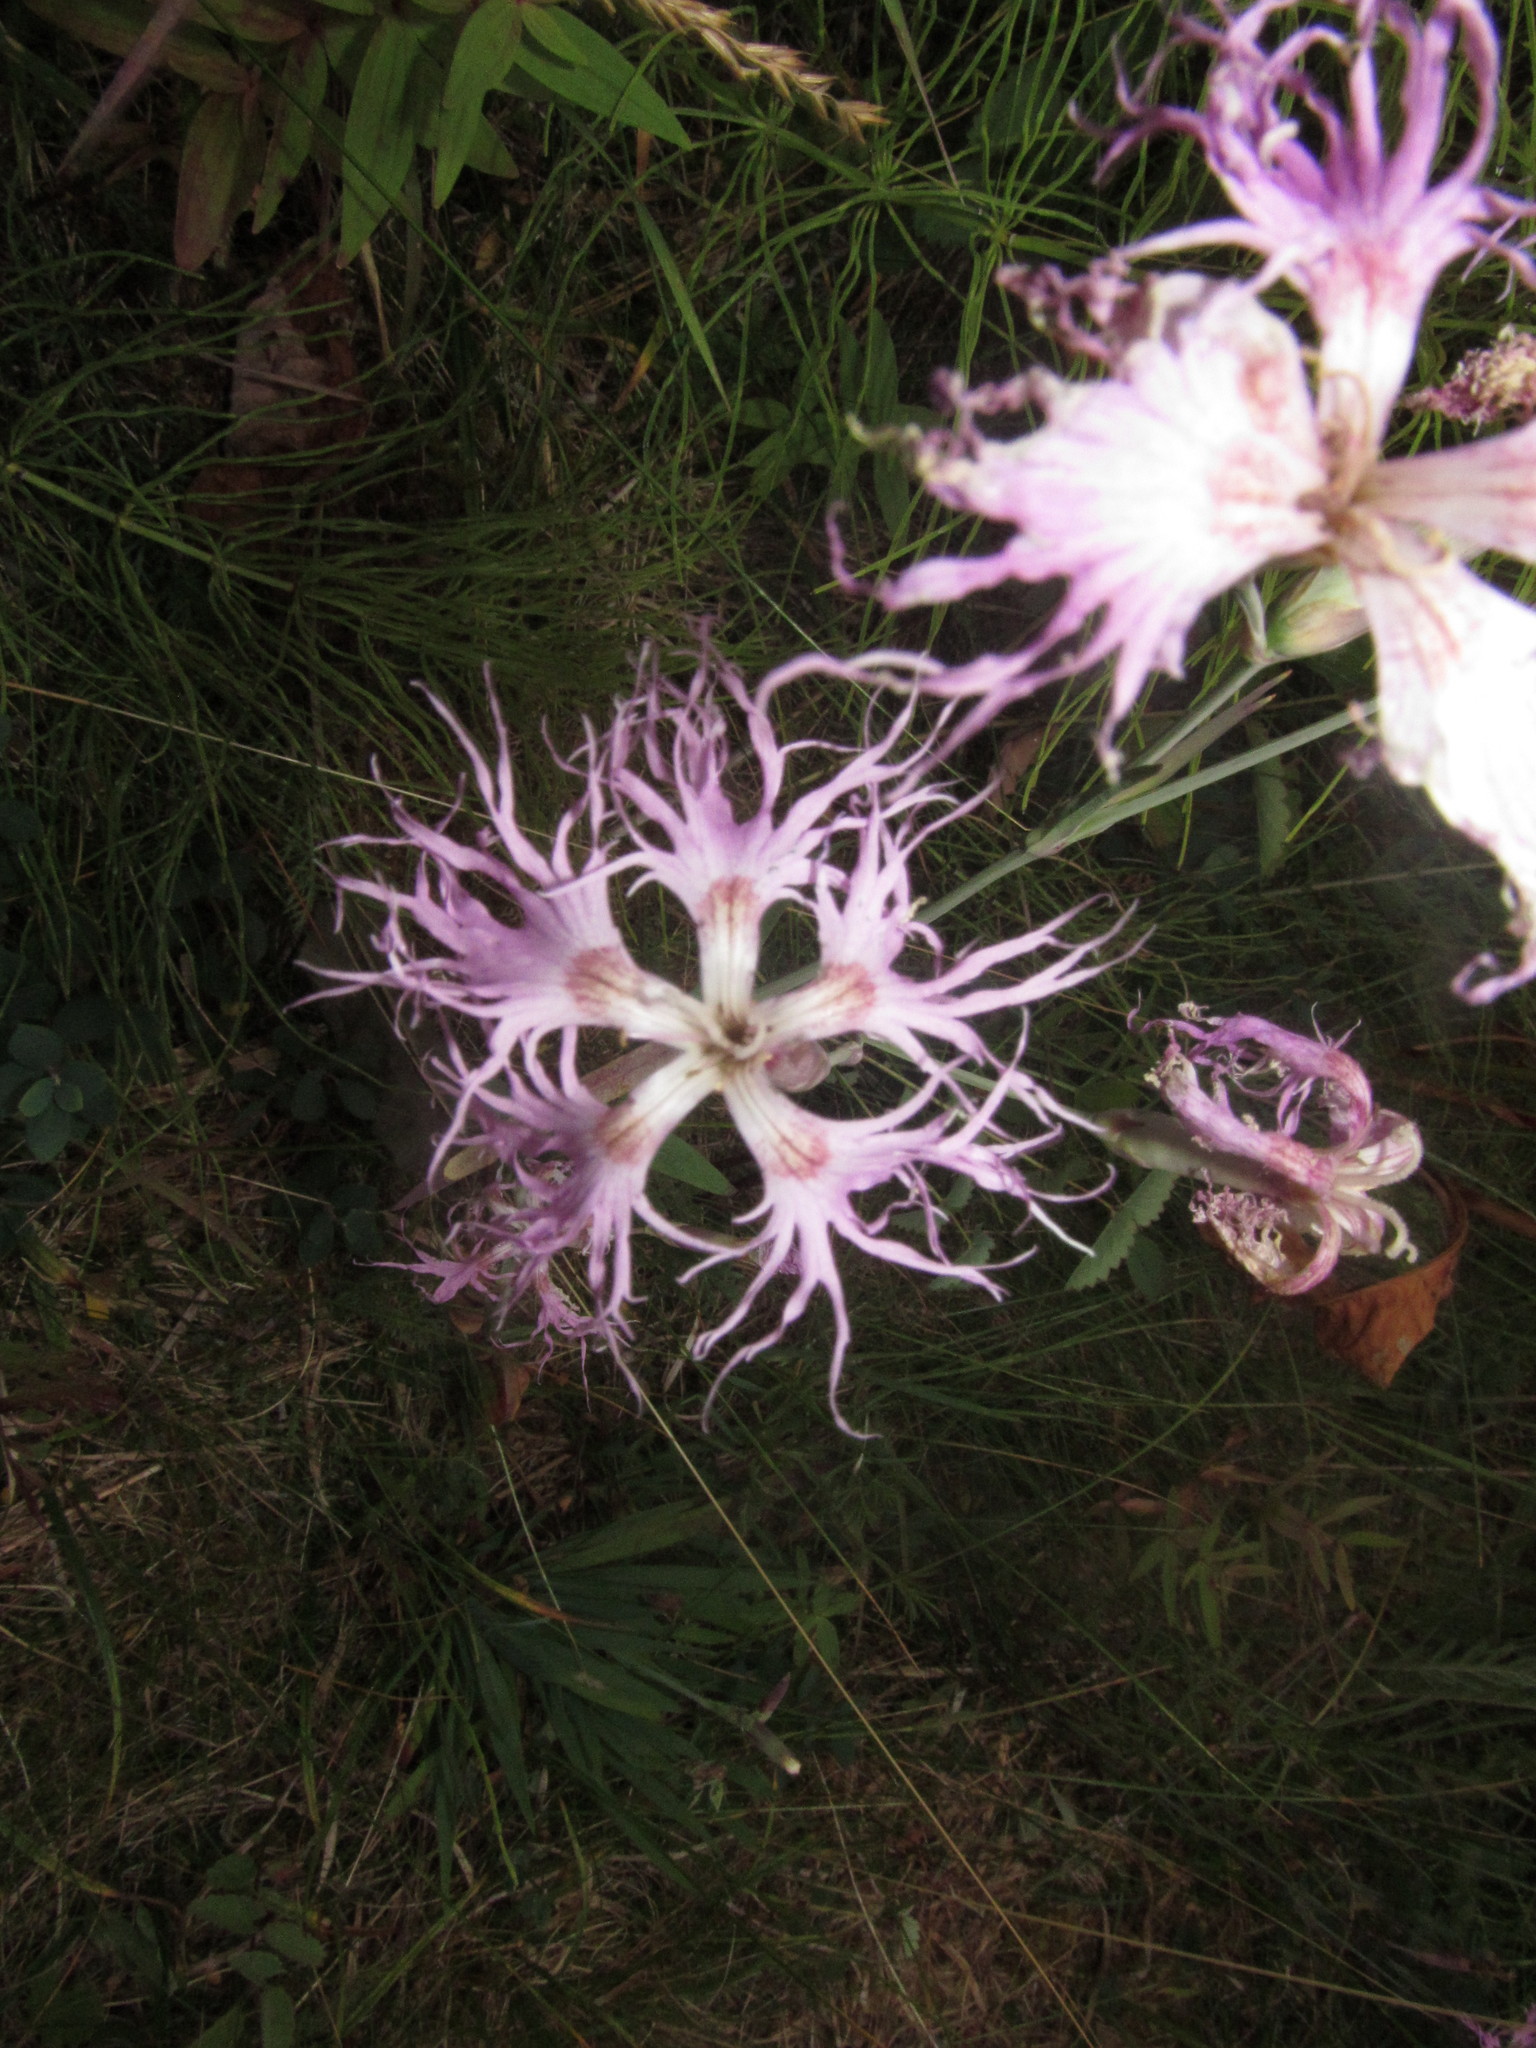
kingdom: Plantae
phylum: Tracheophyta
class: Magnoliopsida
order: Caryophyllales
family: Caryophyllaceae
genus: Dianthus
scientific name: Dianthus superbus
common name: Fringed pink
